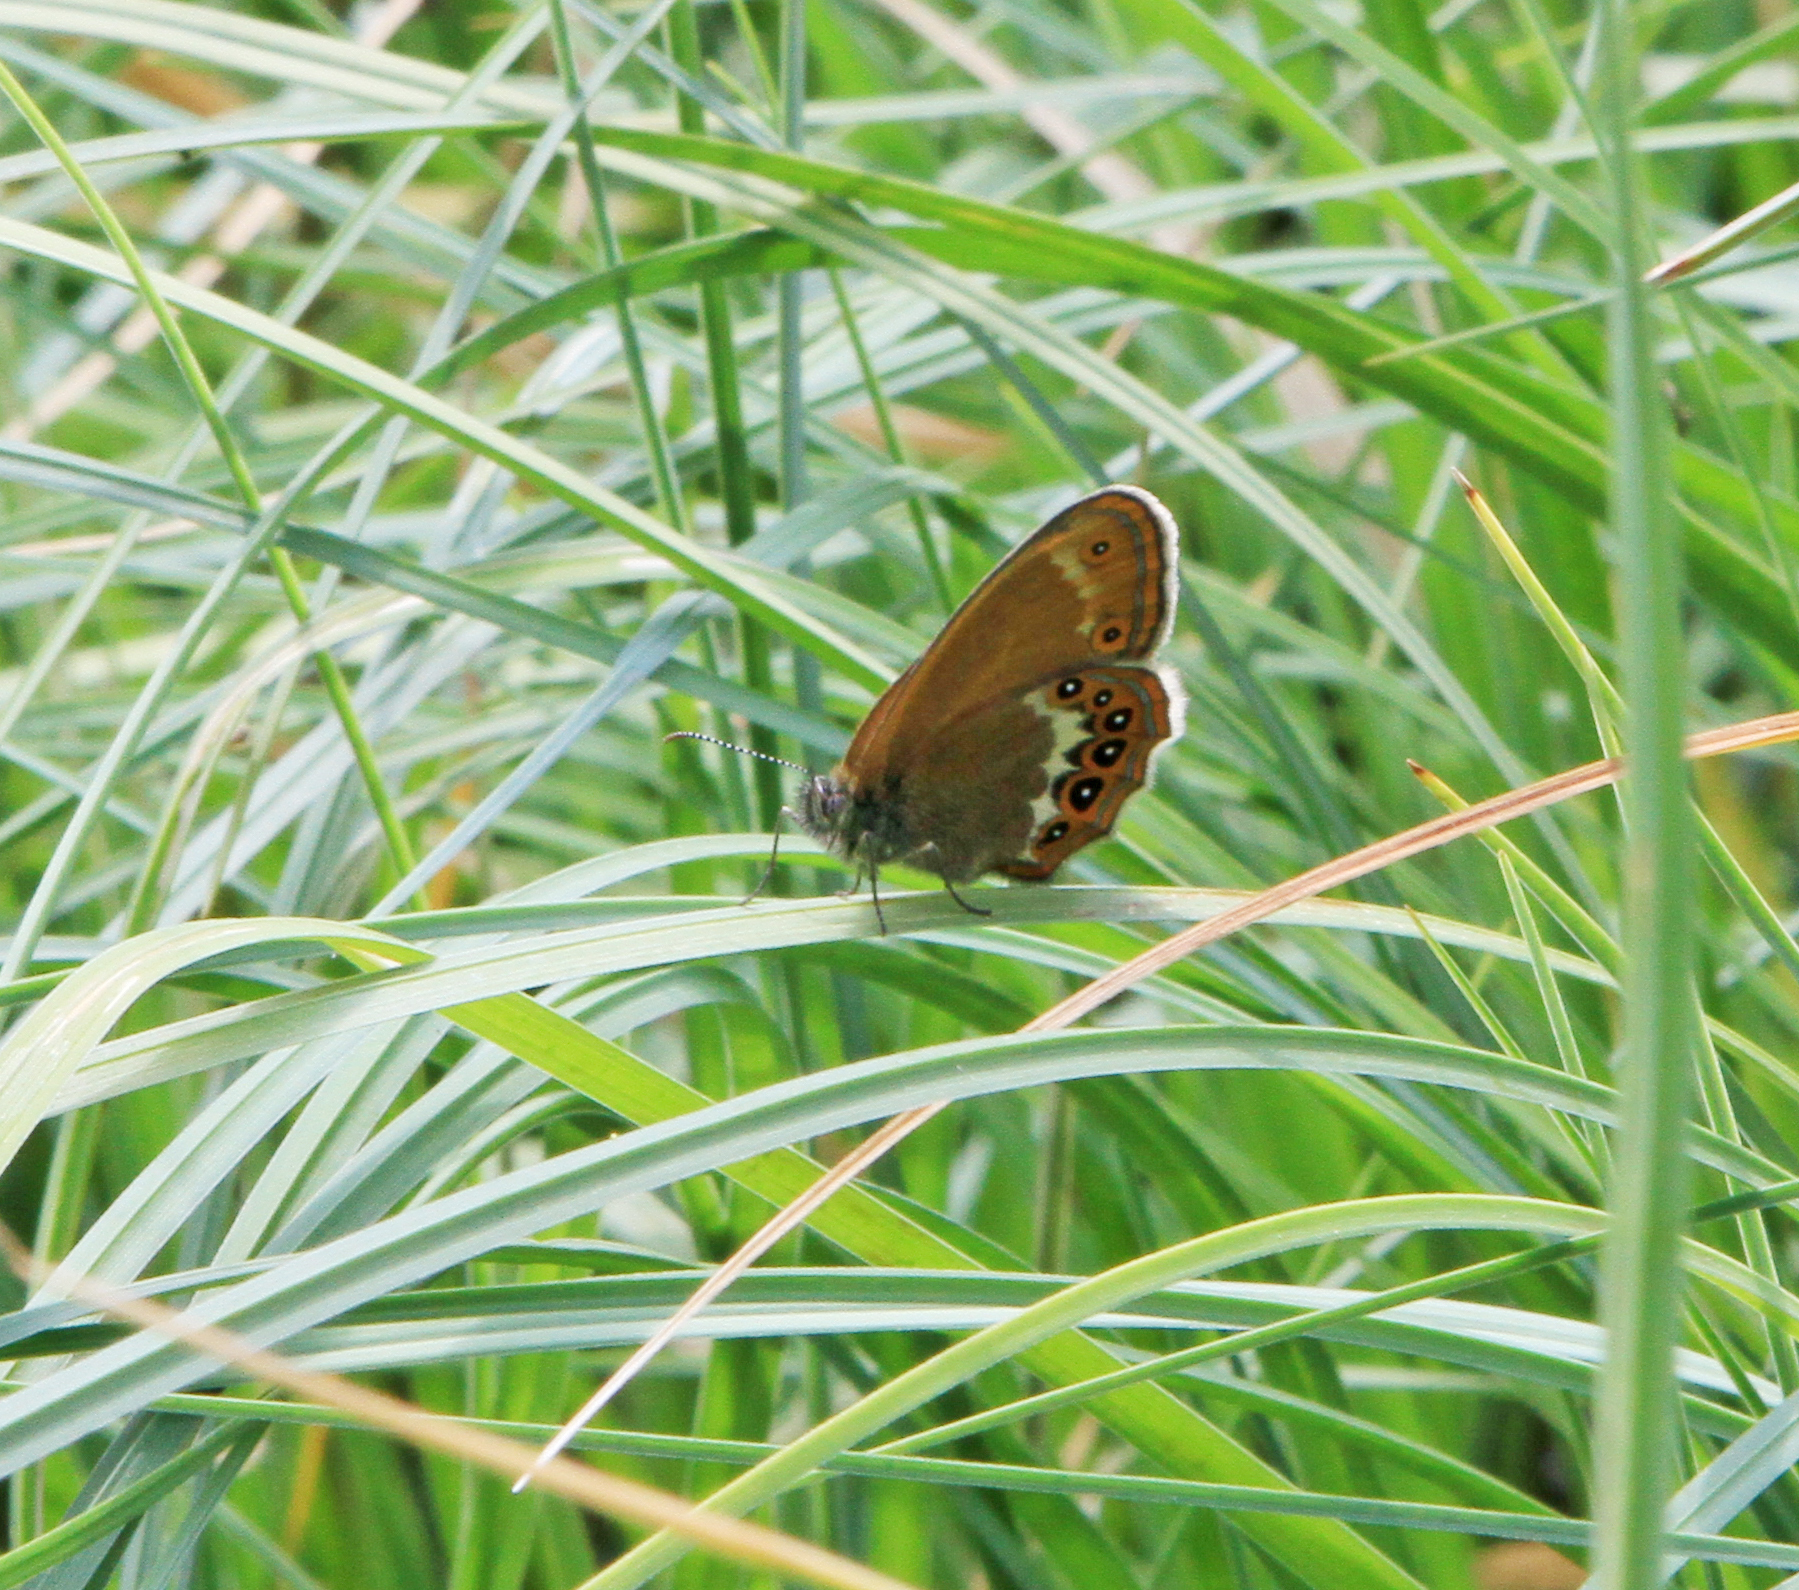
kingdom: Animalia
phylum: Arthropoda
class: Insecta
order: Lepidoptera
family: Nymphalidae
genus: Coenonympha
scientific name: Coenonympha hero
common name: Scarce heath
